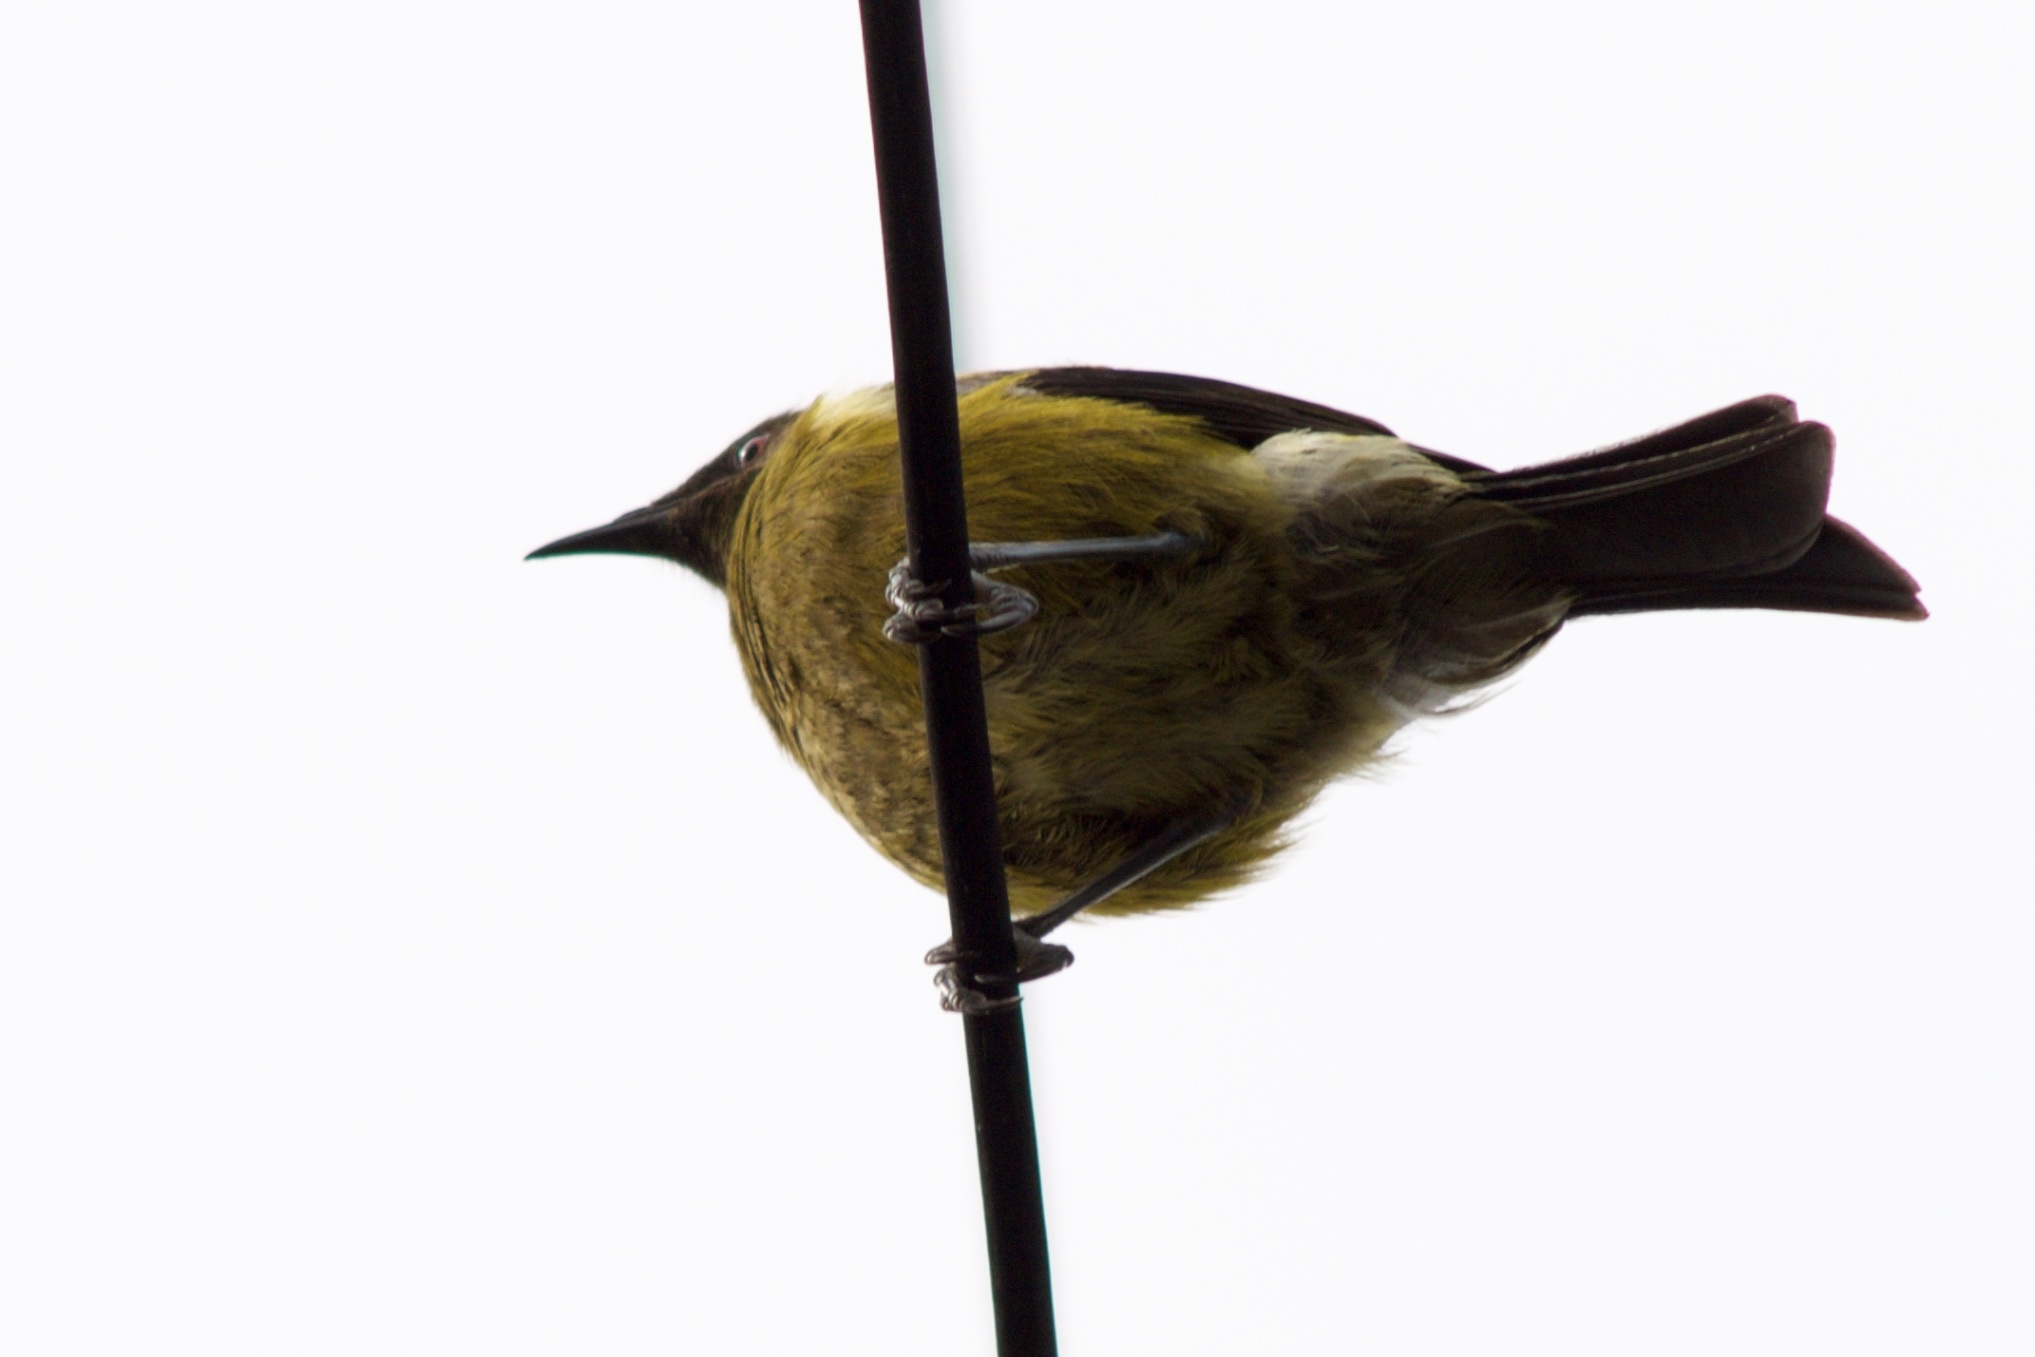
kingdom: Animalia
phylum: Chordata
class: Aves
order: Passeriformes
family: Meliphagidae
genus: Anthornis
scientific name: Anthornis melanura
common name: New zealand bellbird
